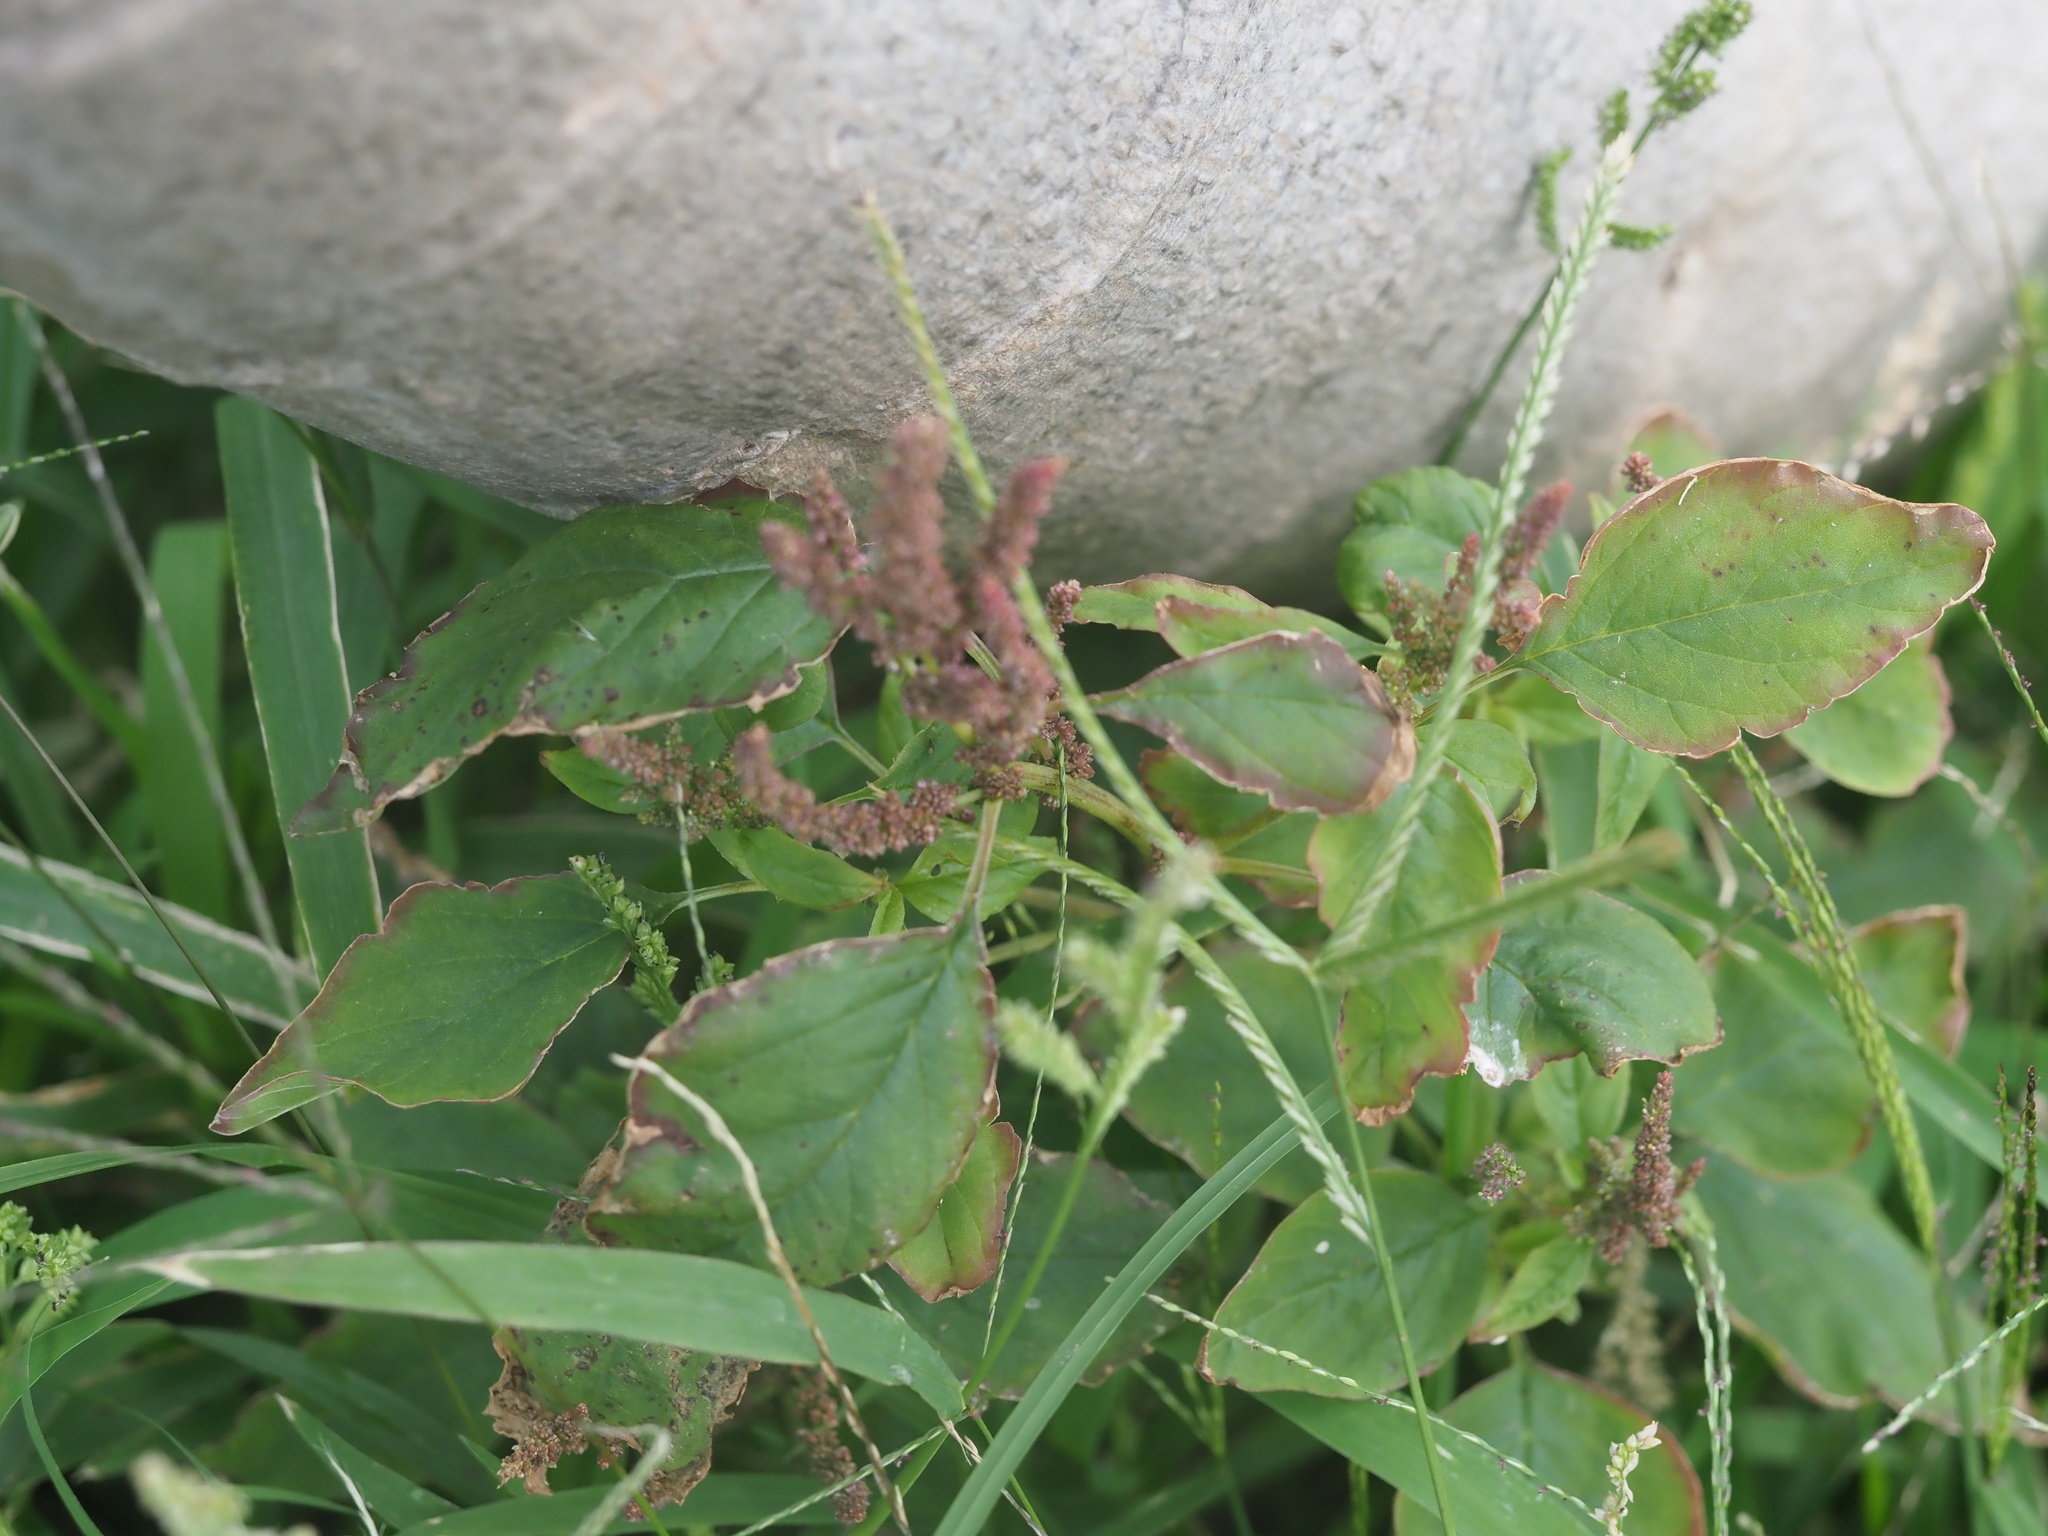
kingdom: Plantae
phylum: Tracheophyta
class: Magnoliopsida
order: Caryophyllales
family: Amaranthaceae
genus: Amaranthus
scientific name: Amaranthus viridis
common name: Slender amaranth
